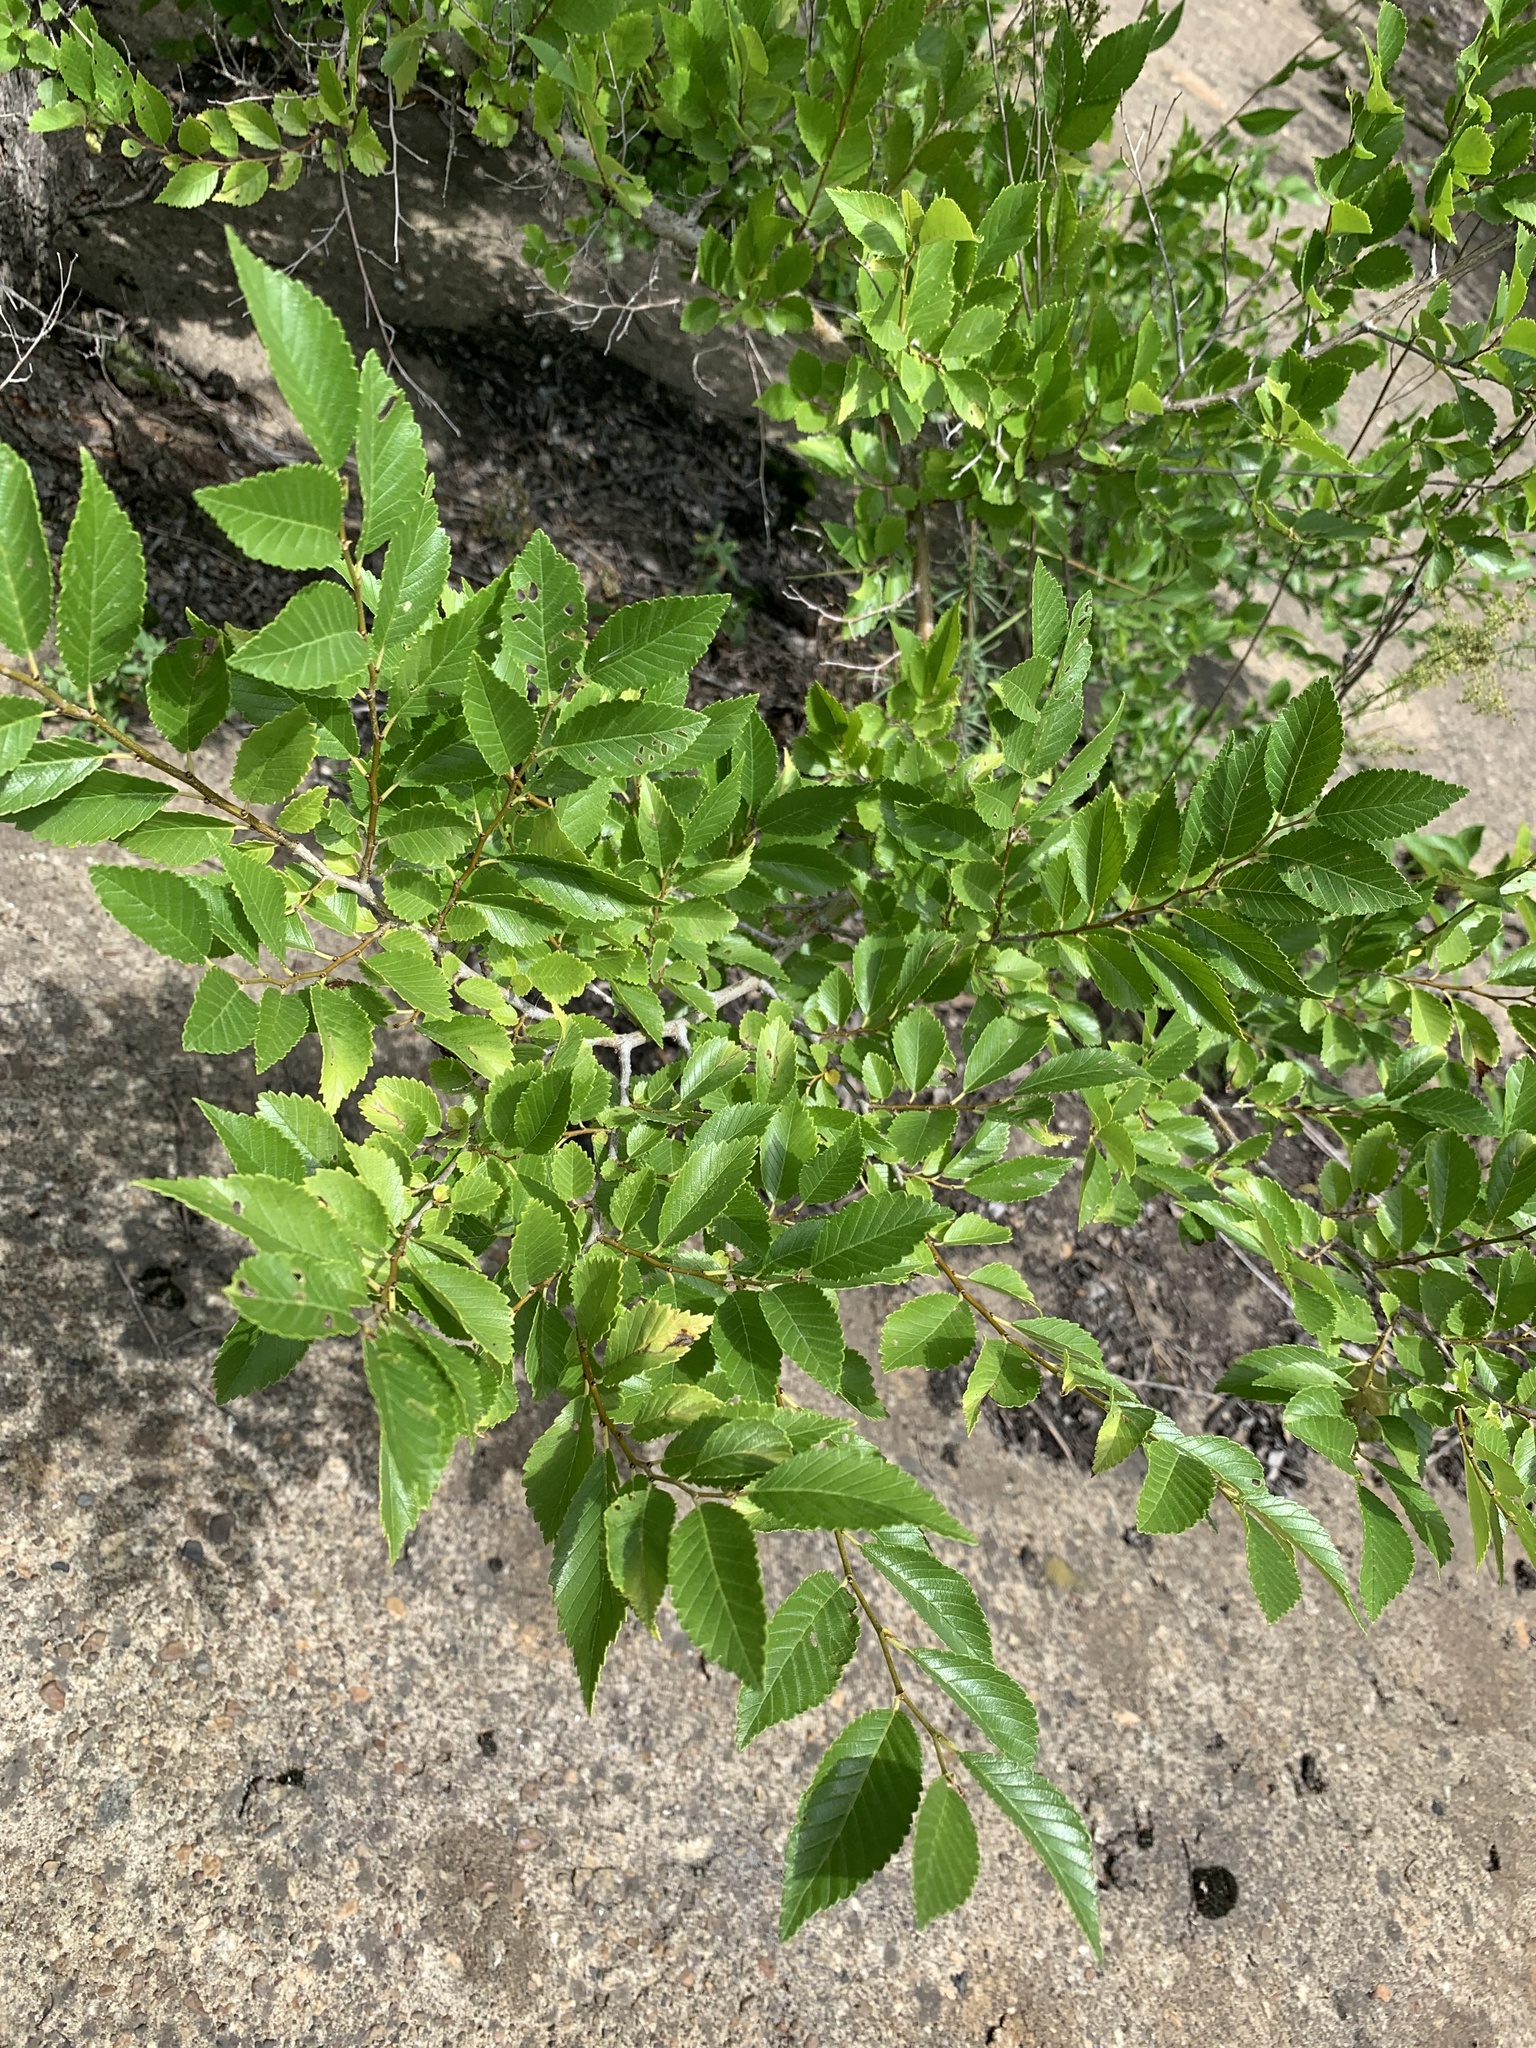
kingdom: Plantae
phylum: Tracheophyta
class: Magnoliopsida
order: Rosales
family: Ulmaceae
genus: Ulmus
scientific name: Ulmus pumila
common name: Siberian elm
